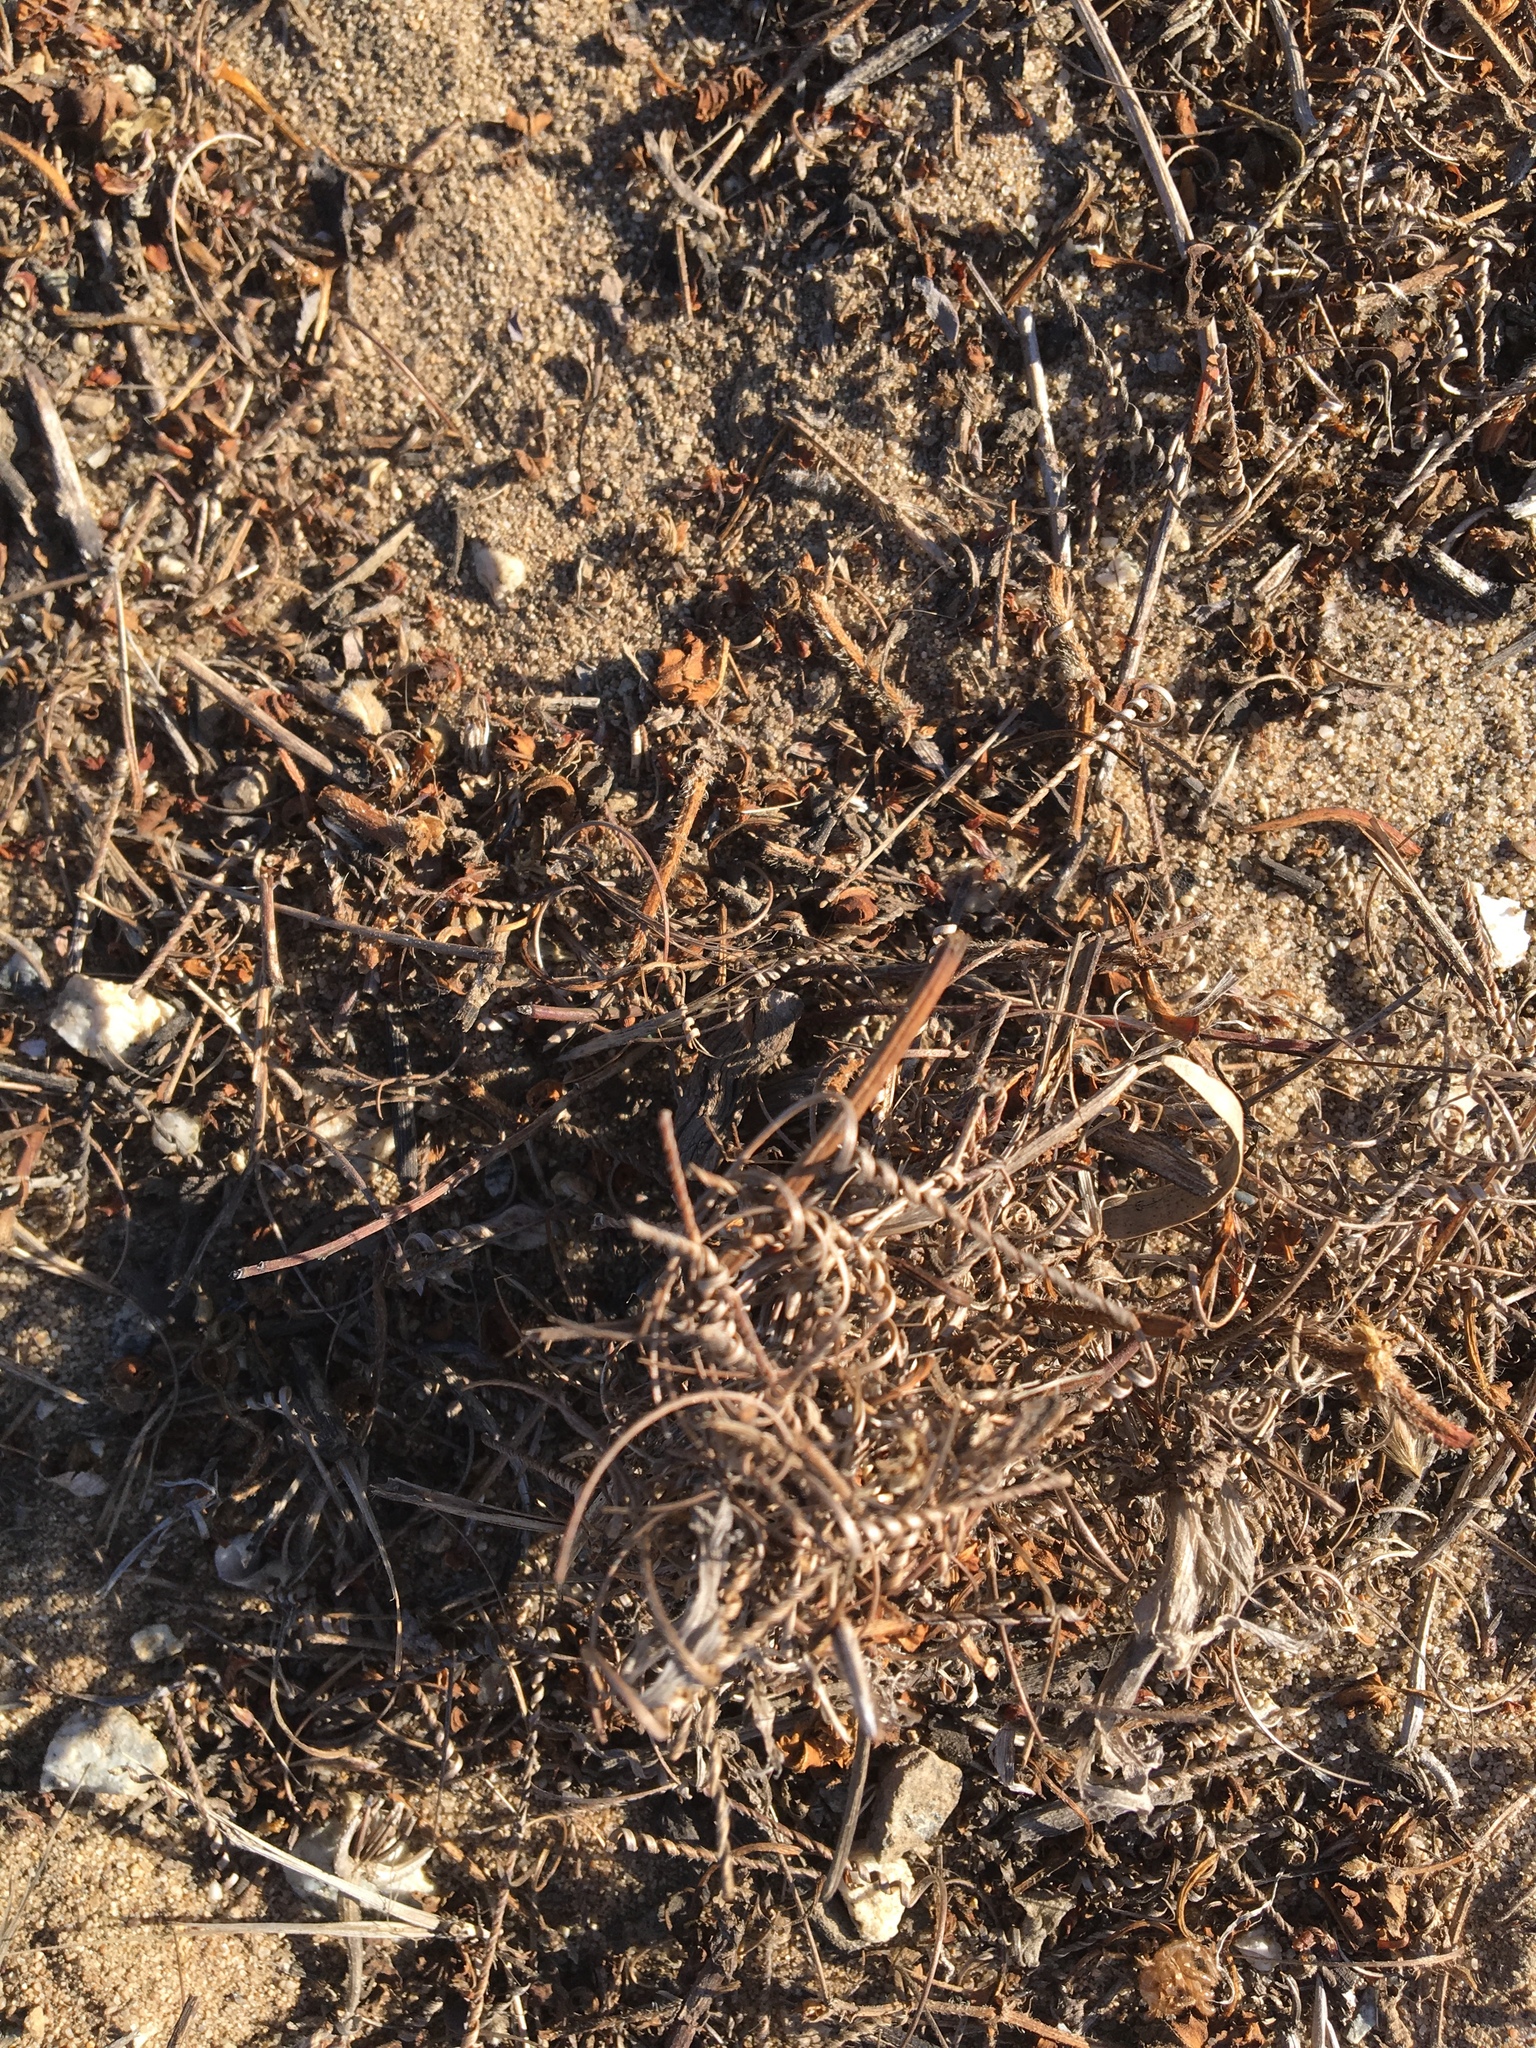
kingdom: Plantae
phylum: Tracheophyta
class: Magnoliopsida
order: Geraniales
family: Geraniaceae
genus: Erodium
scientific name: Erodium
